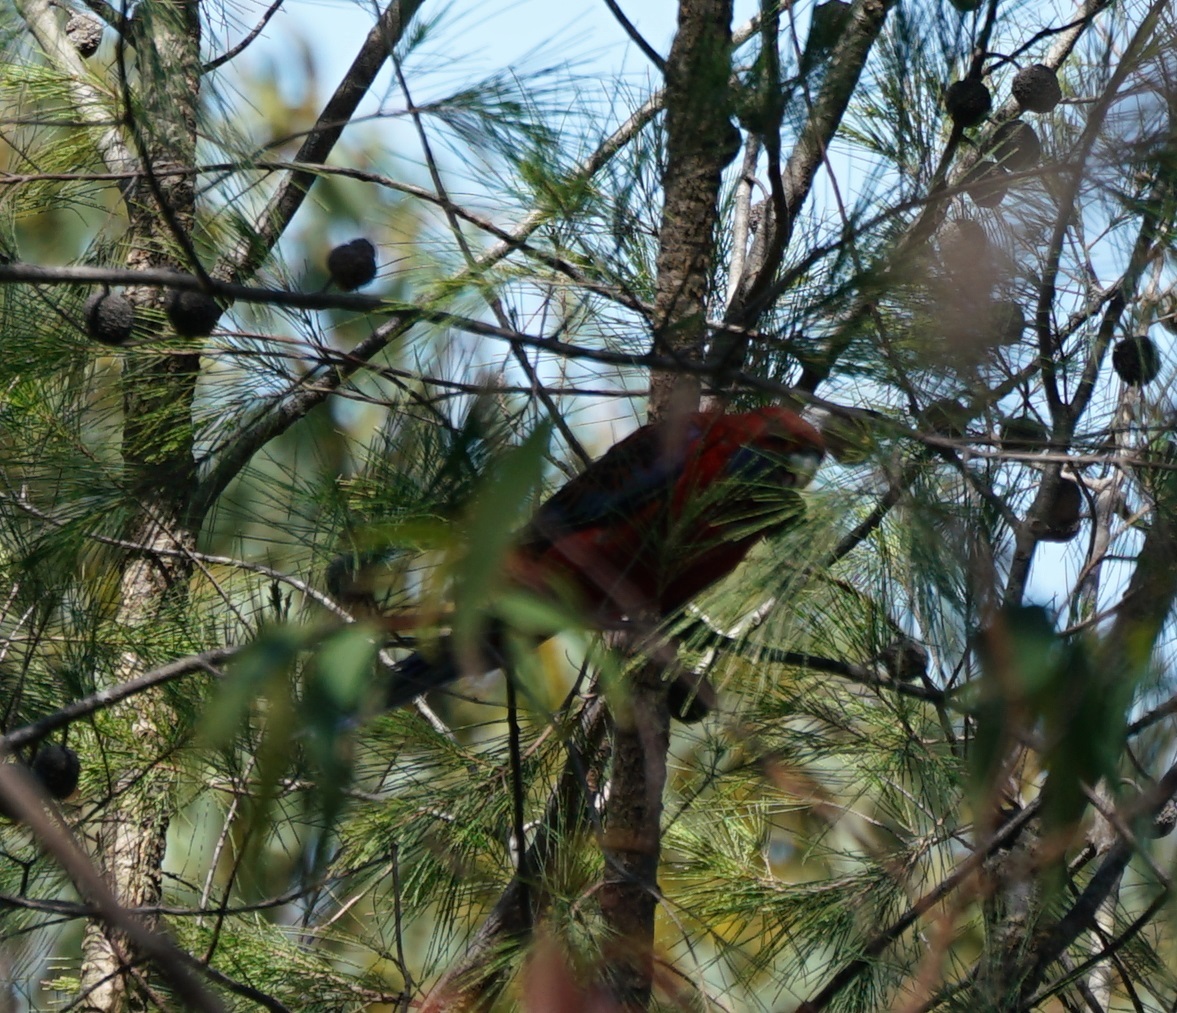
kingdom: Animalia
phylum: Chordata
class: Aves
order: Psittaciformes
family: Psittacidae
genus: Platycercus
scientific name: Platycercus elegans
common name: Crimson rosella
